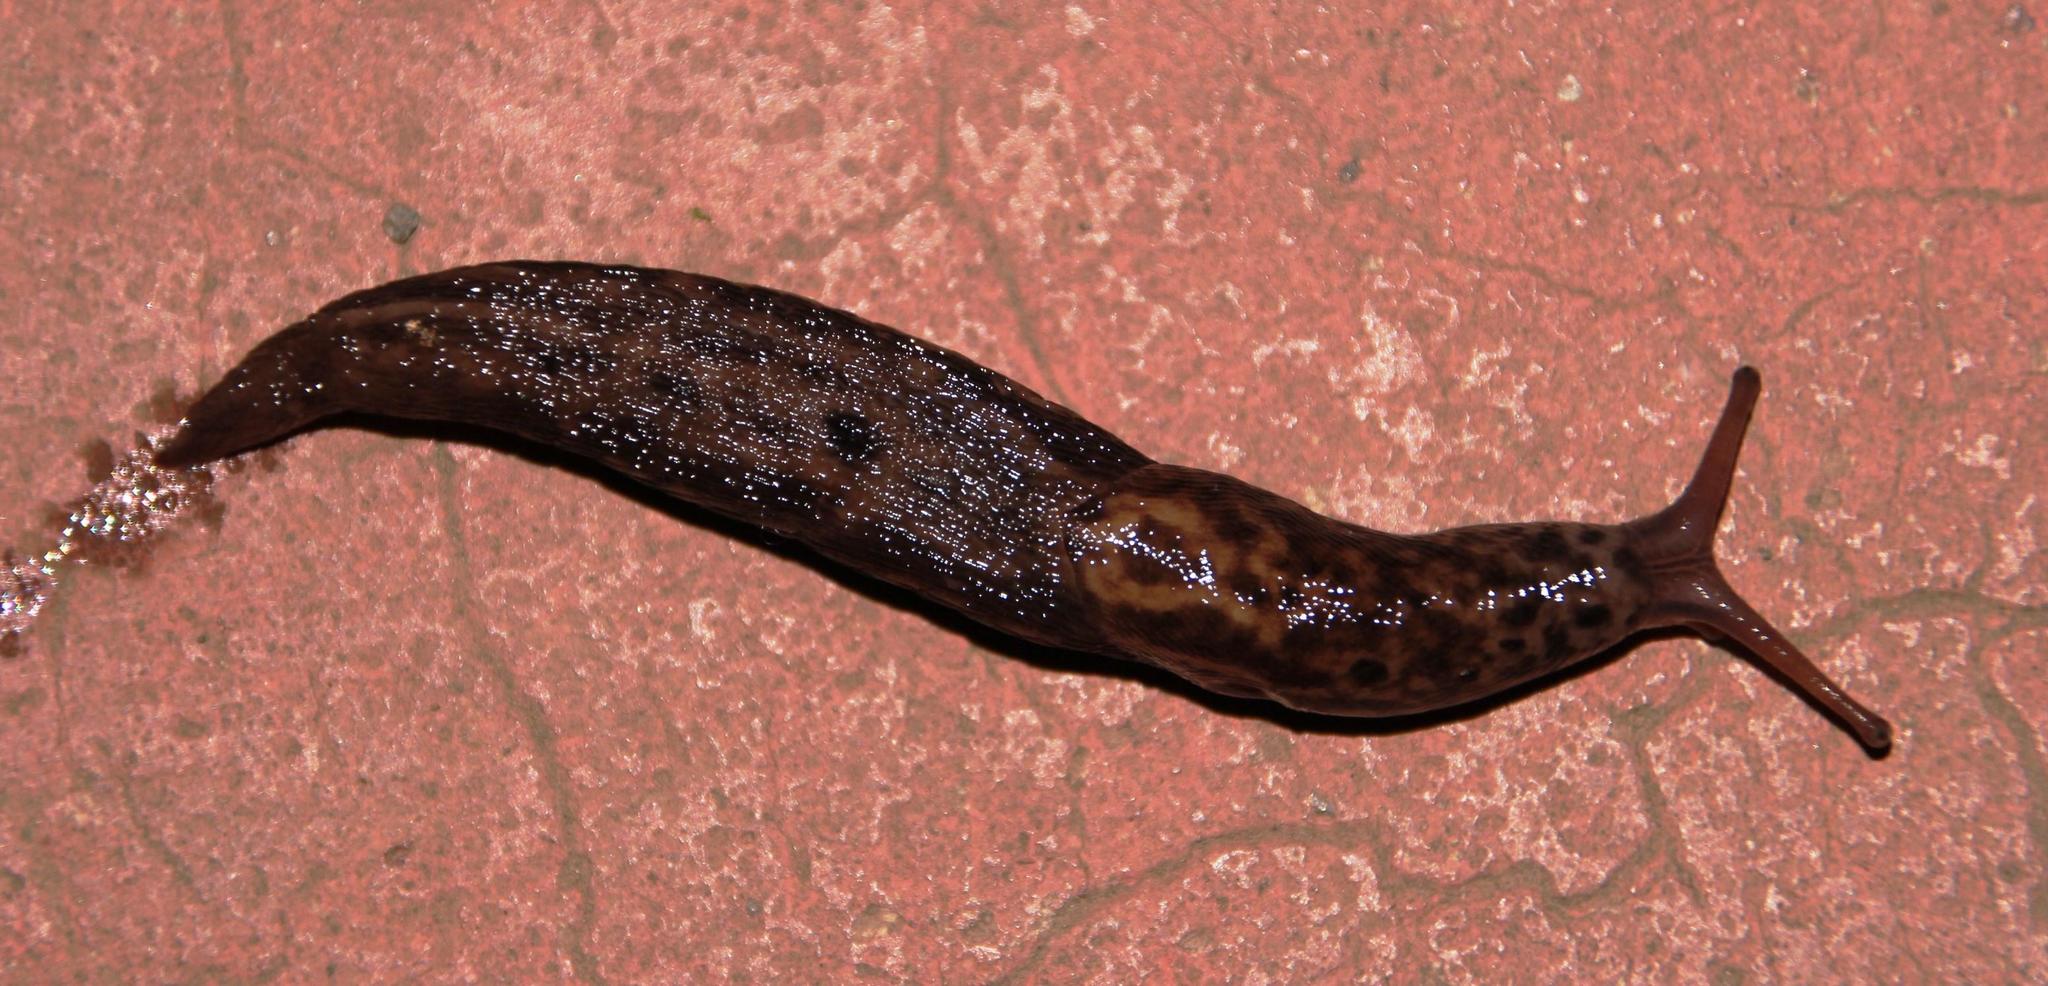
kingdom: Animalia
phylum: Mollusca
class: Gastropoda
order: Stylommatophora
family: Limacidae
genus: Limax
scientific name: Limax maximus
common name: Great grey slug
